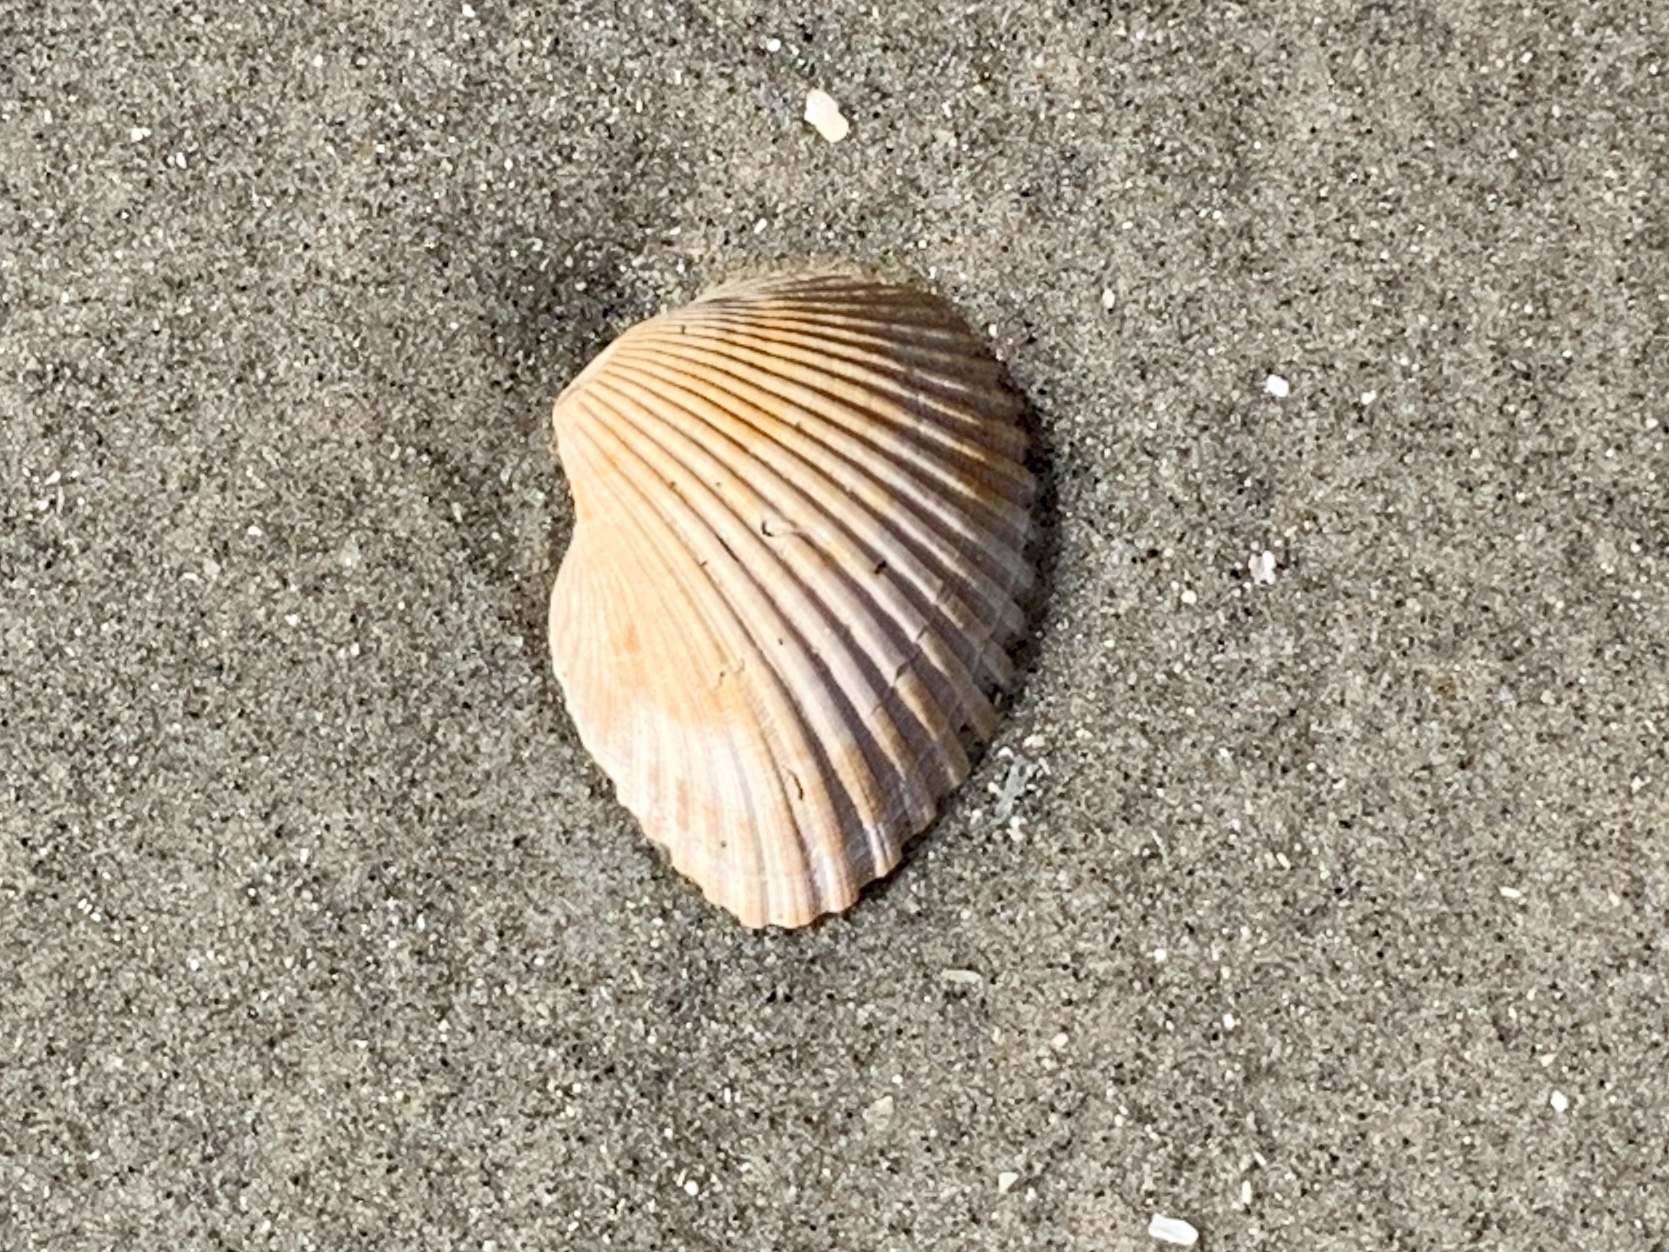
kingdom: Animalia
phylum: Mollusca
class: Bivalvia
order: Arcida
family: Noetiidae
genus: Noetia
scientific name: Noetia ponderosa
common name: Ponderous ark
